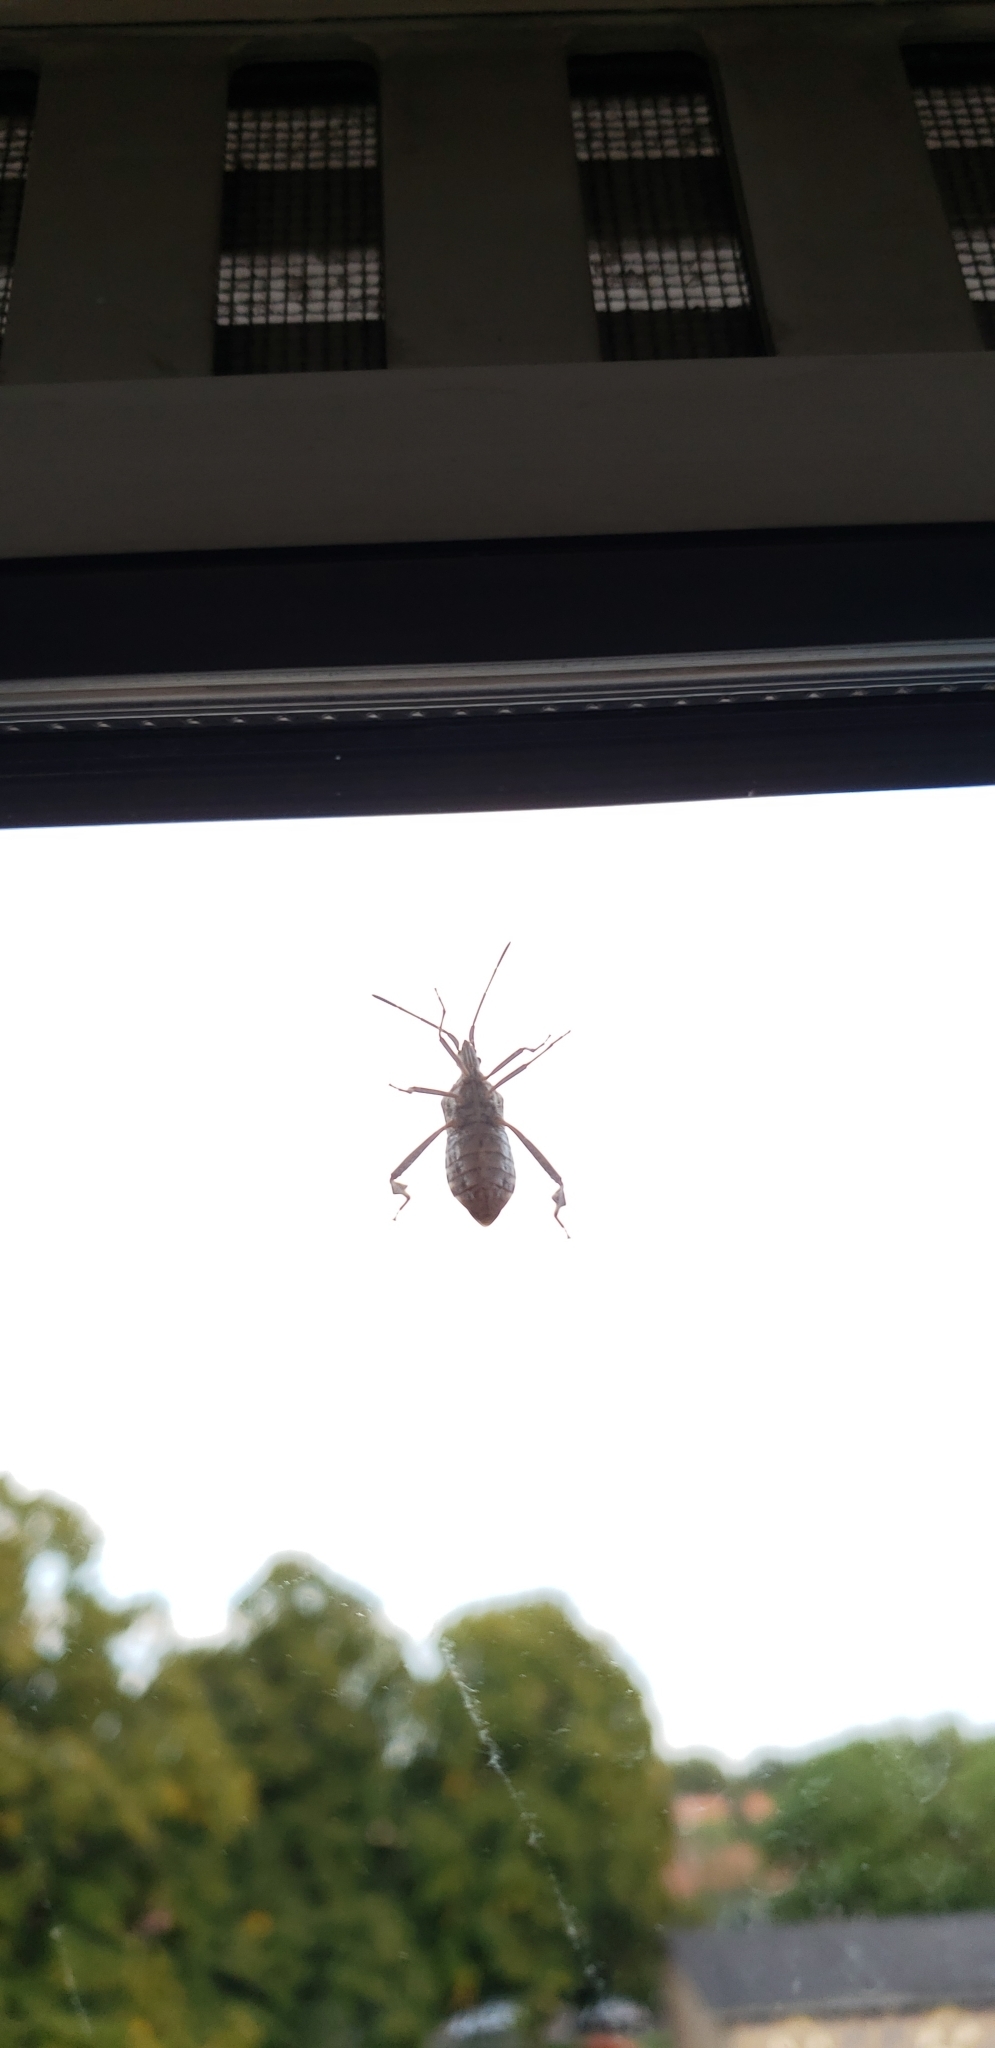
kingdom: Animalia
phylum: Arthropoda
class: Insecta
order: Hemiptera
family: Coreidae
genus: Leptoglossus
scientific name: Leptoglossus occidentalis
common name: Western conifer-seed bug
